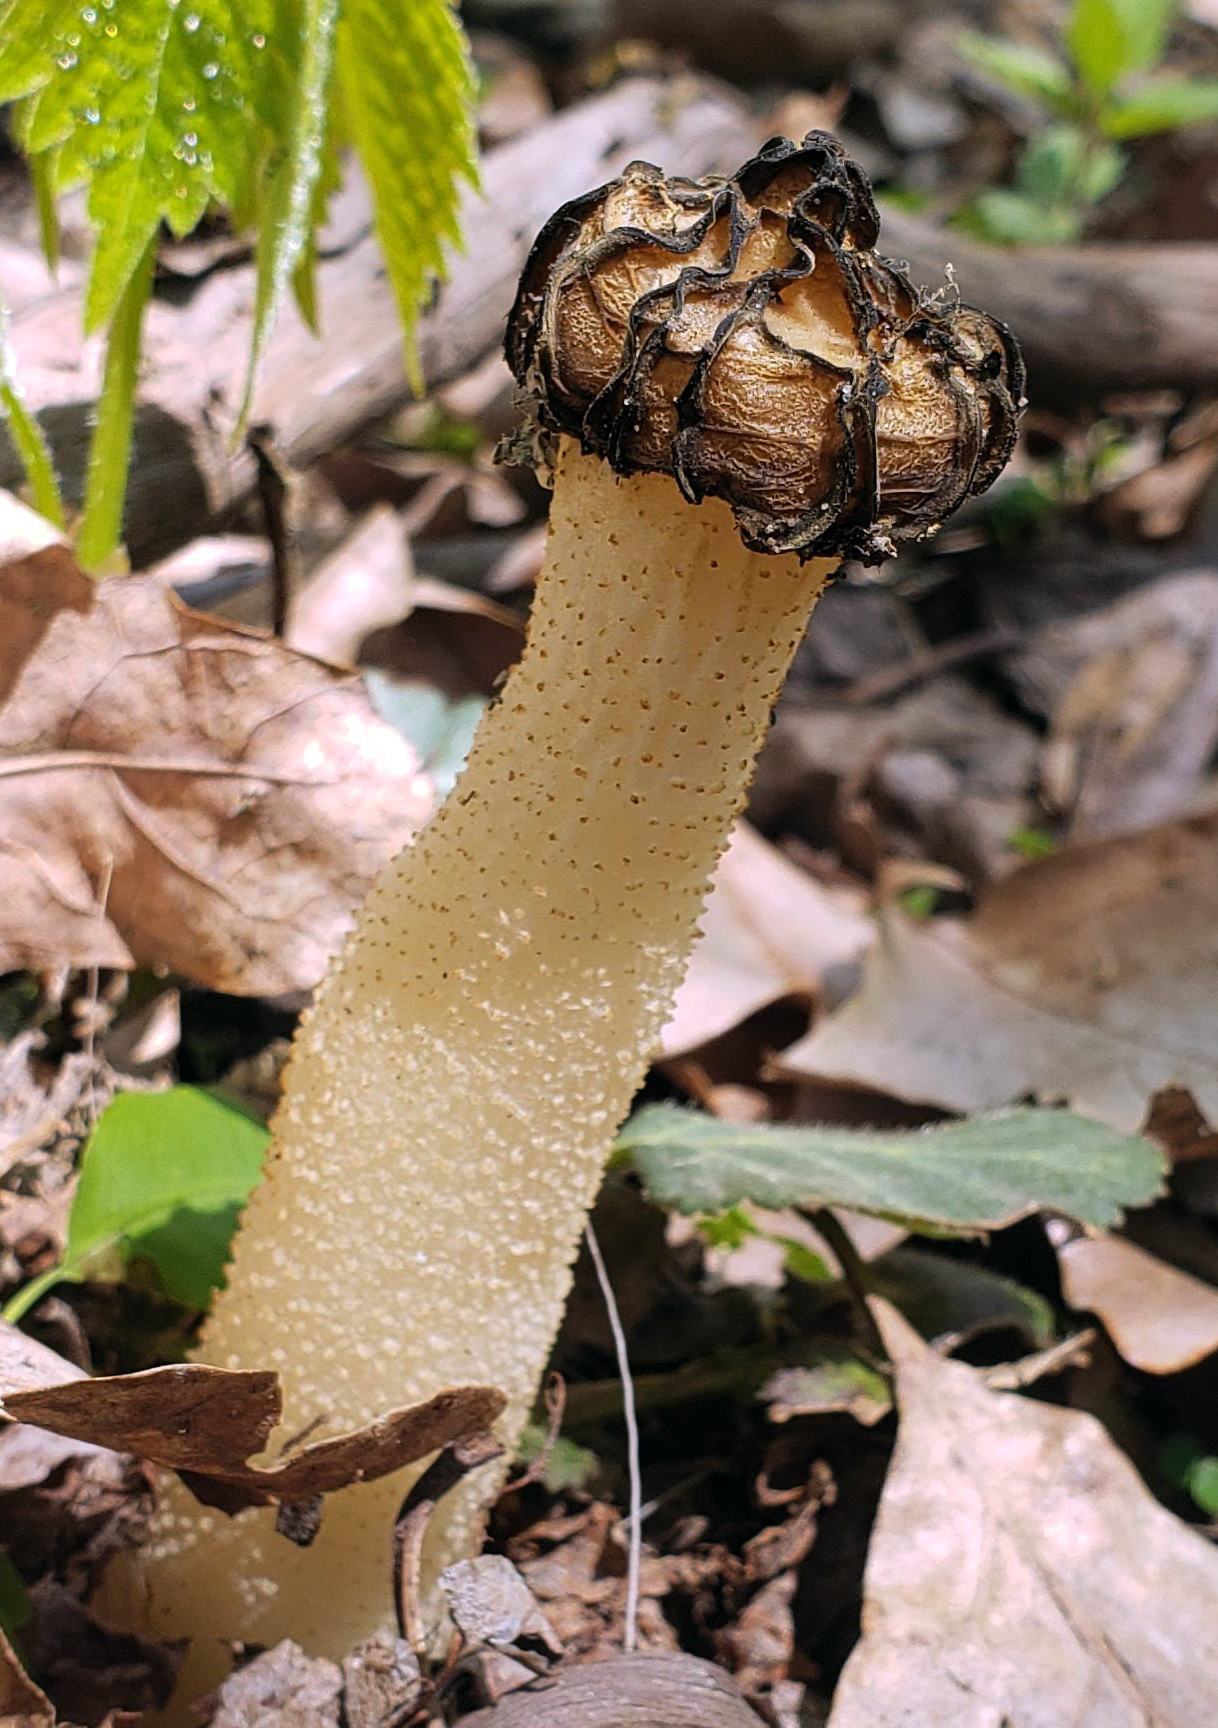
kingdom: Fungi
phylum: Ascomycota
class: Pezizomycetes
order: Pezizales
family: Morchellaceae
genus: Morchella
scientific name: Morchella punctipes
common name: Half-free morel
